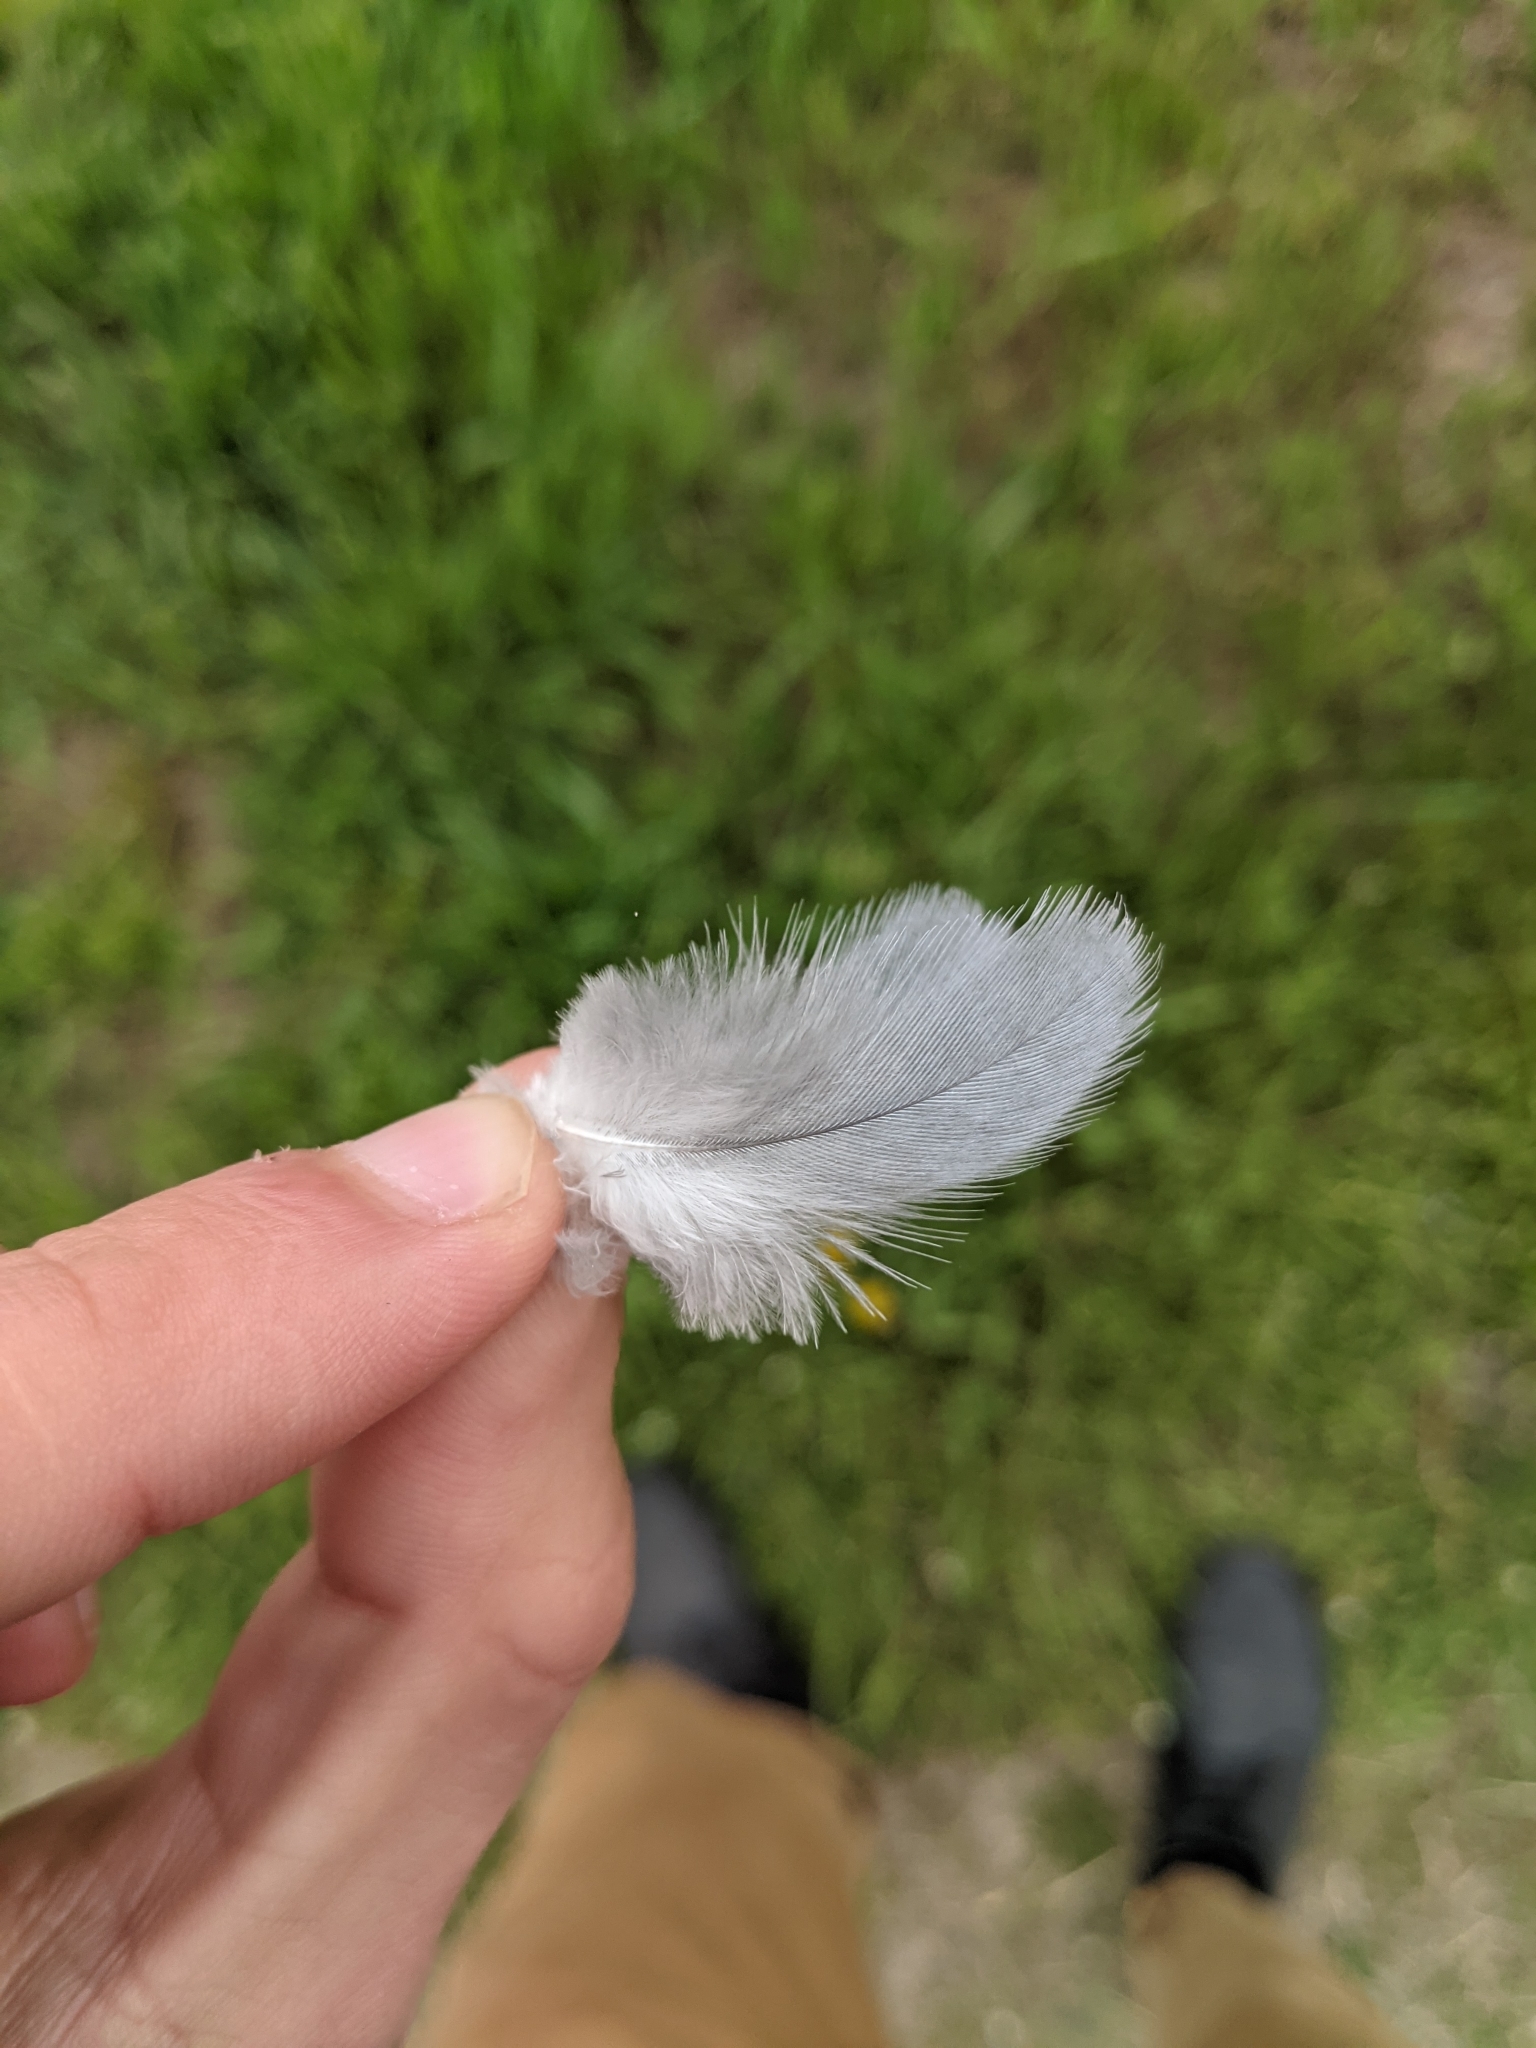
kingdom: Animalia
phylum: Chordata
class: Aves
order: Columbiformes
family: Columbidae
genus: Streptopelia
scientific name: Streptopelia decaocto
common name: Eurasian collared dove
